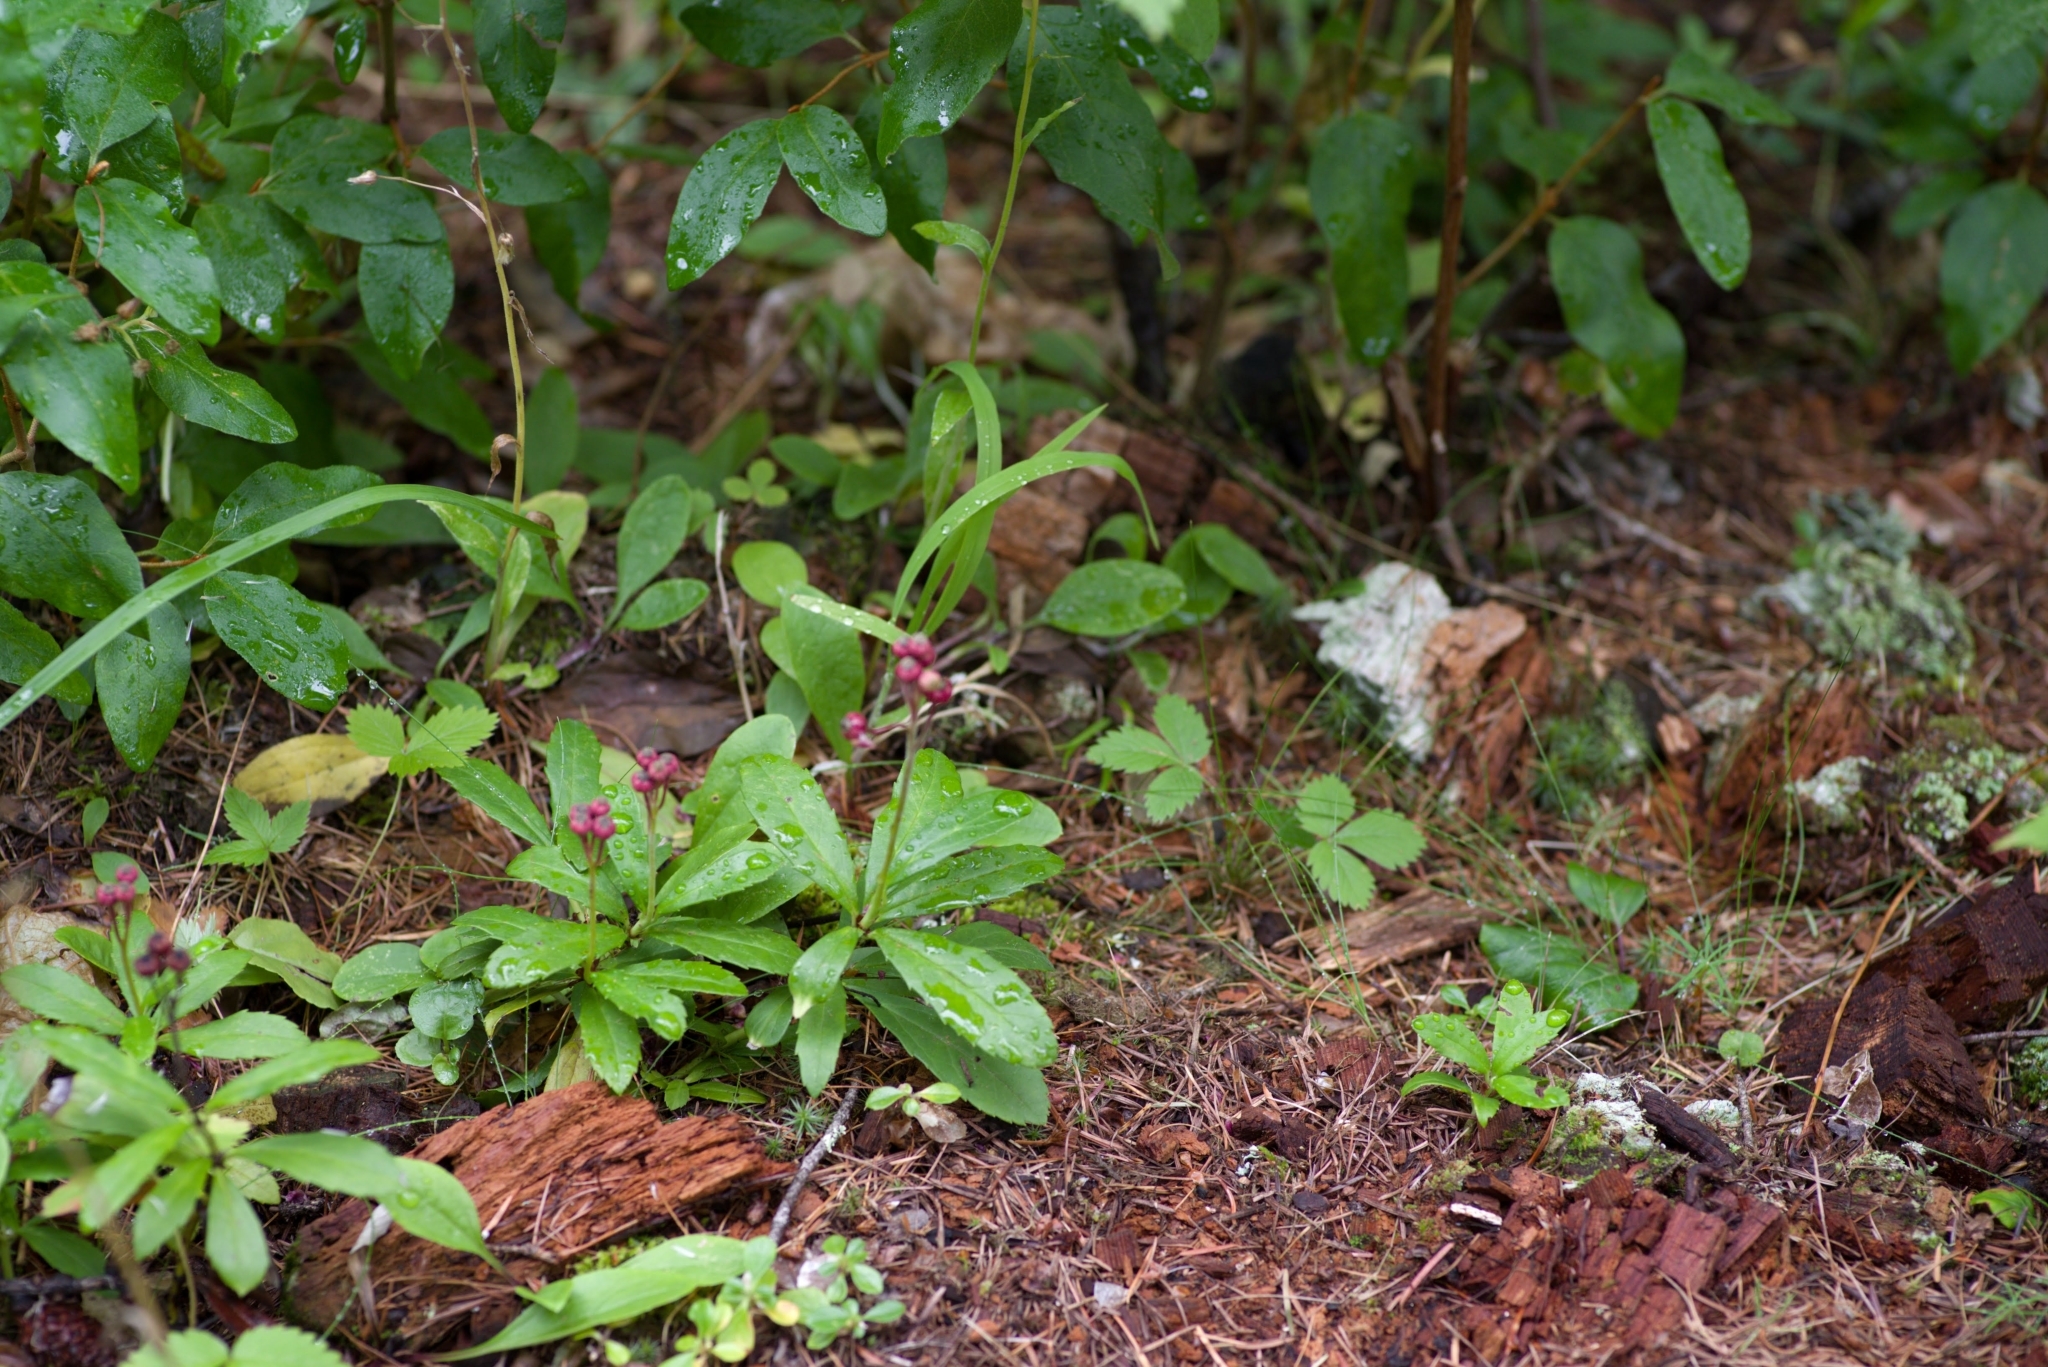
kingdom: Plantae
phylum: Tracheophyta
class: Magnoliopsida
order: Ericales
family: Ericaceae
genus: Chimaphila
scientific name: Chimaphila umbellata
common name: Pipsissewa
